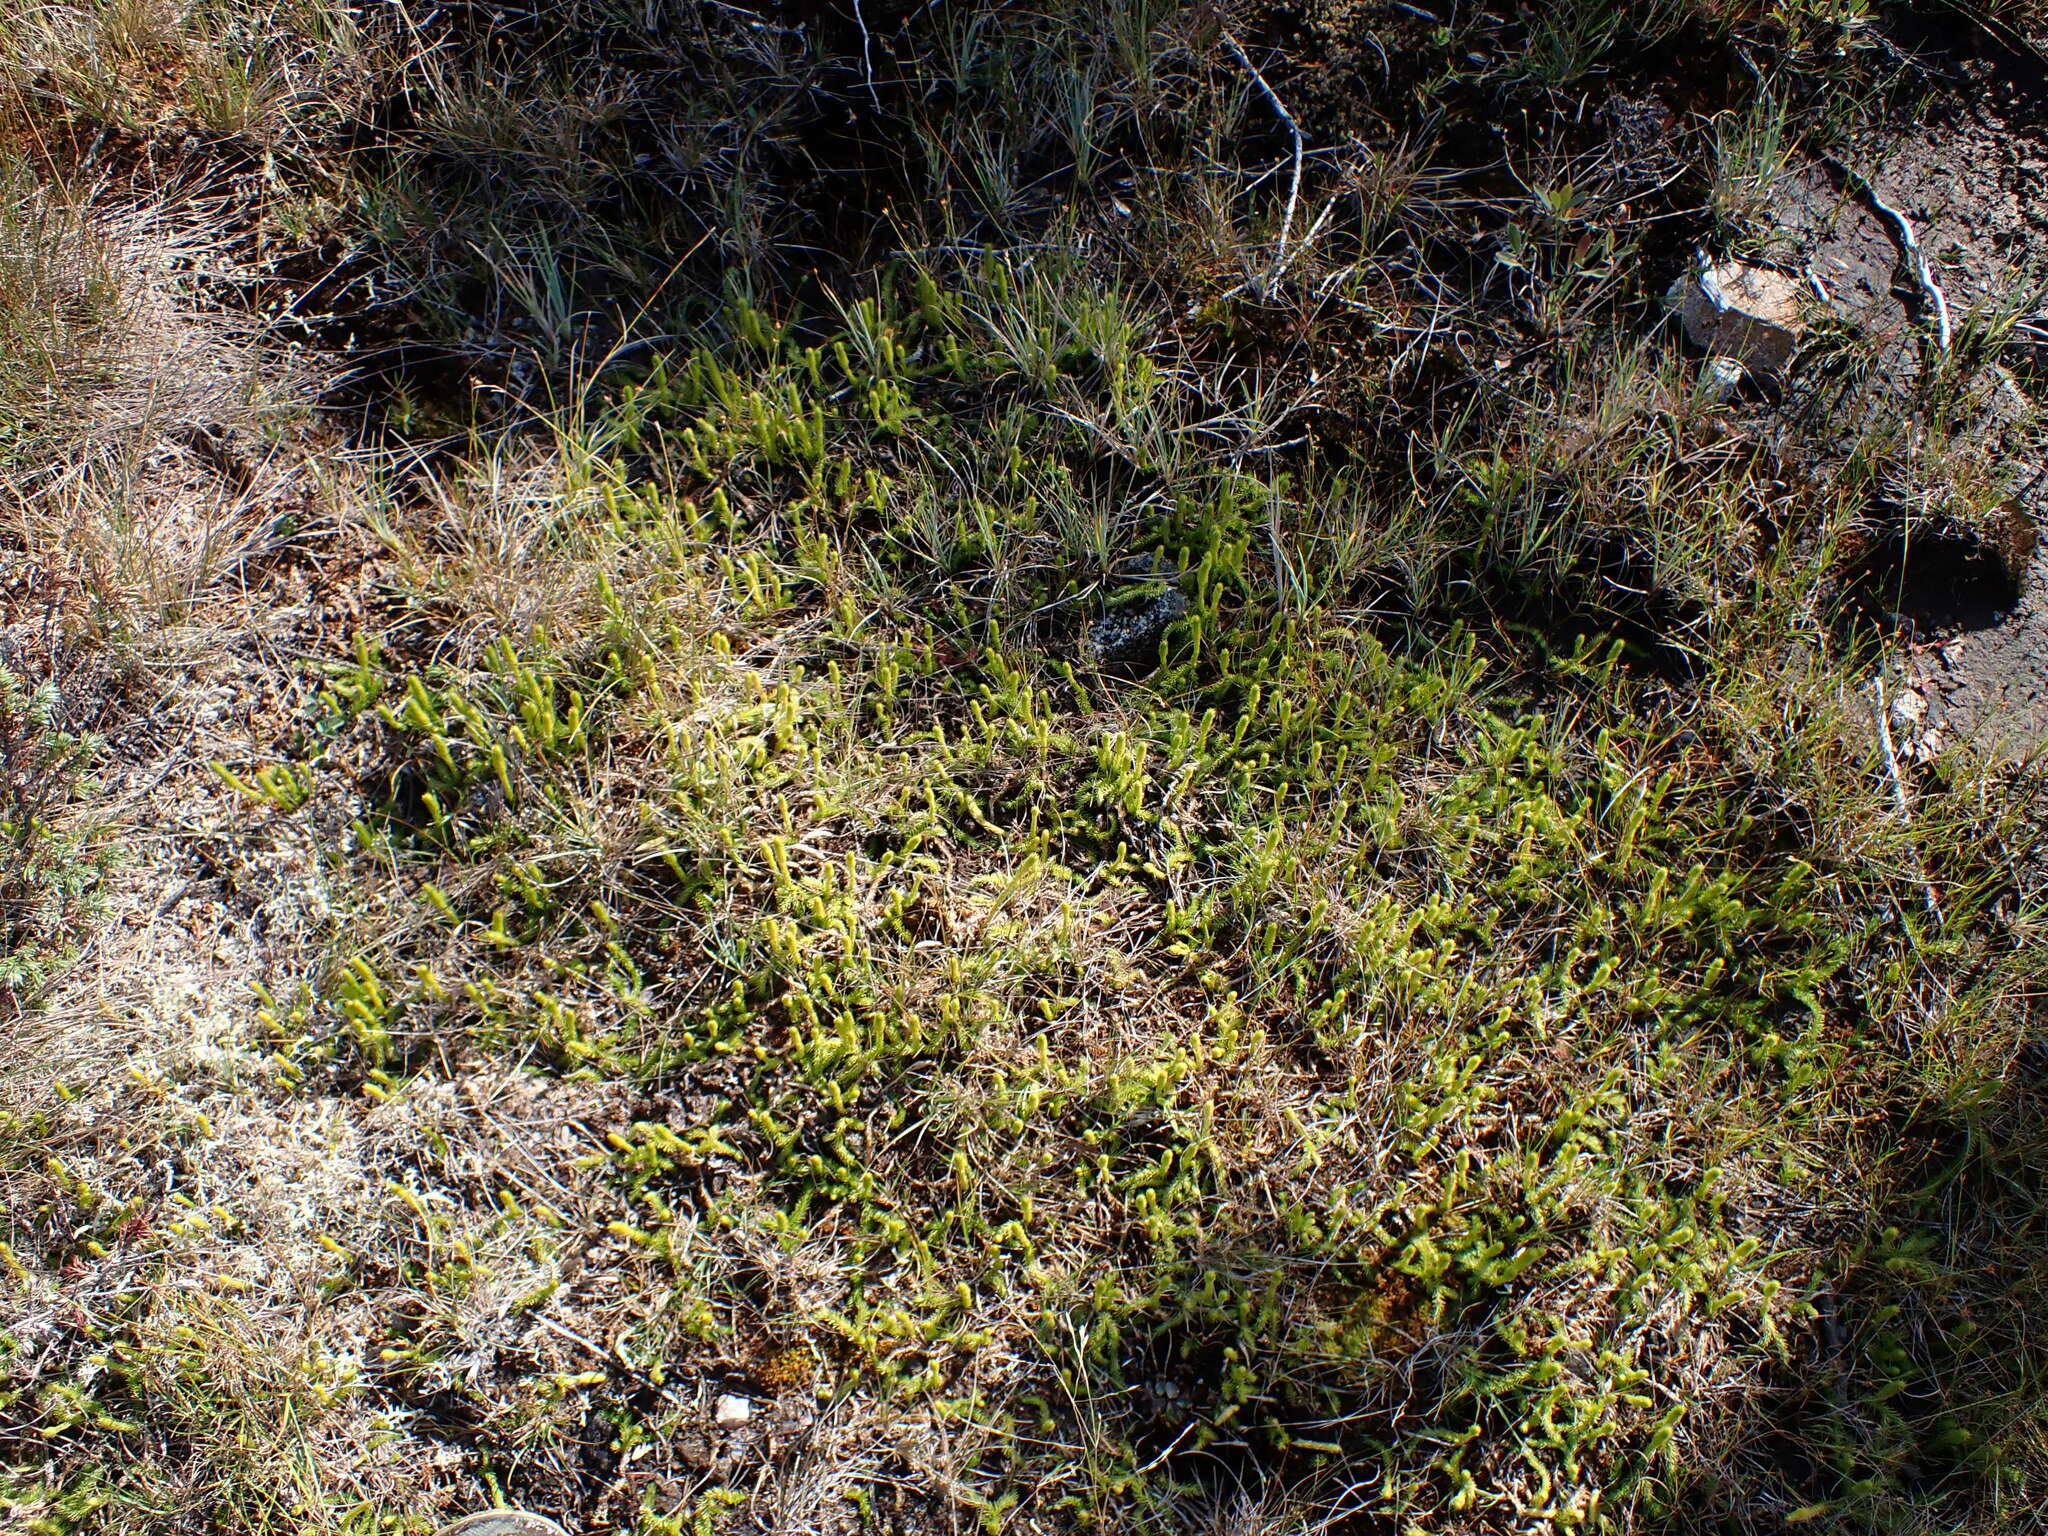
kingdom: Plantae
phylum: Tracheophyta
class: Lycopodiopsida
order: Lycopodiales
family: Lycopodiaceae
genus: Lycopodiella
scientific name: Lycopodiella inundata
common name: Marsh clubmoss
